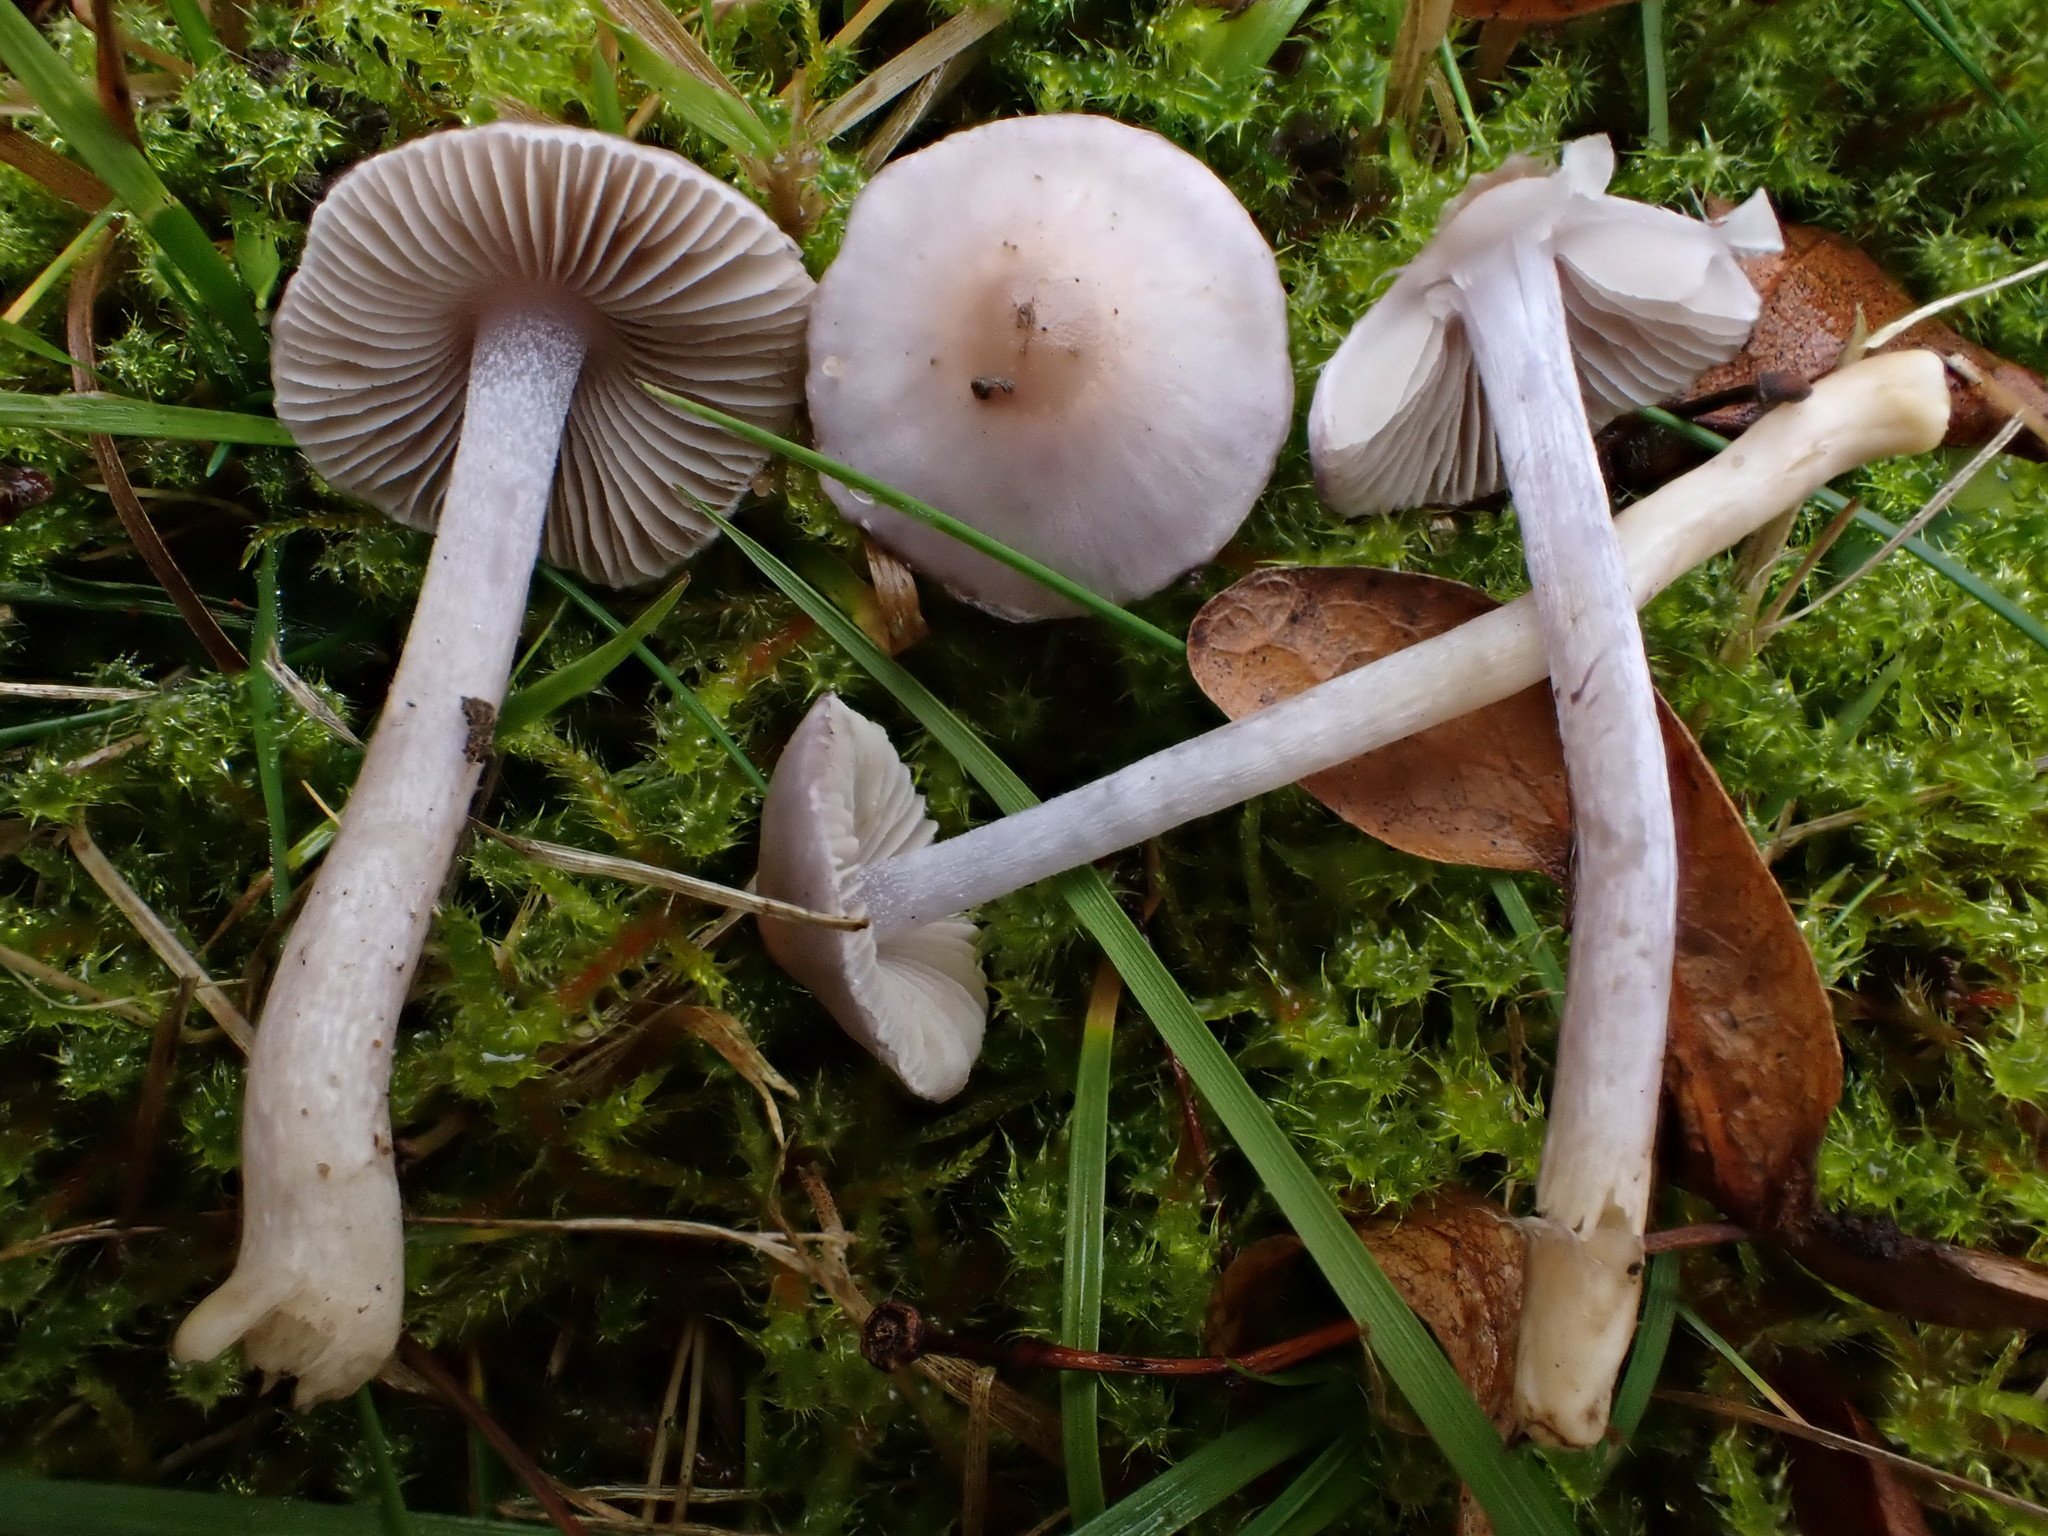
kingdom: Fungi
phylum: Basidiomycota
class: Agaricomycetes
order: Agaricales
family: Inocybaceae
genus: Inocybe
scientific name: Inocybe
